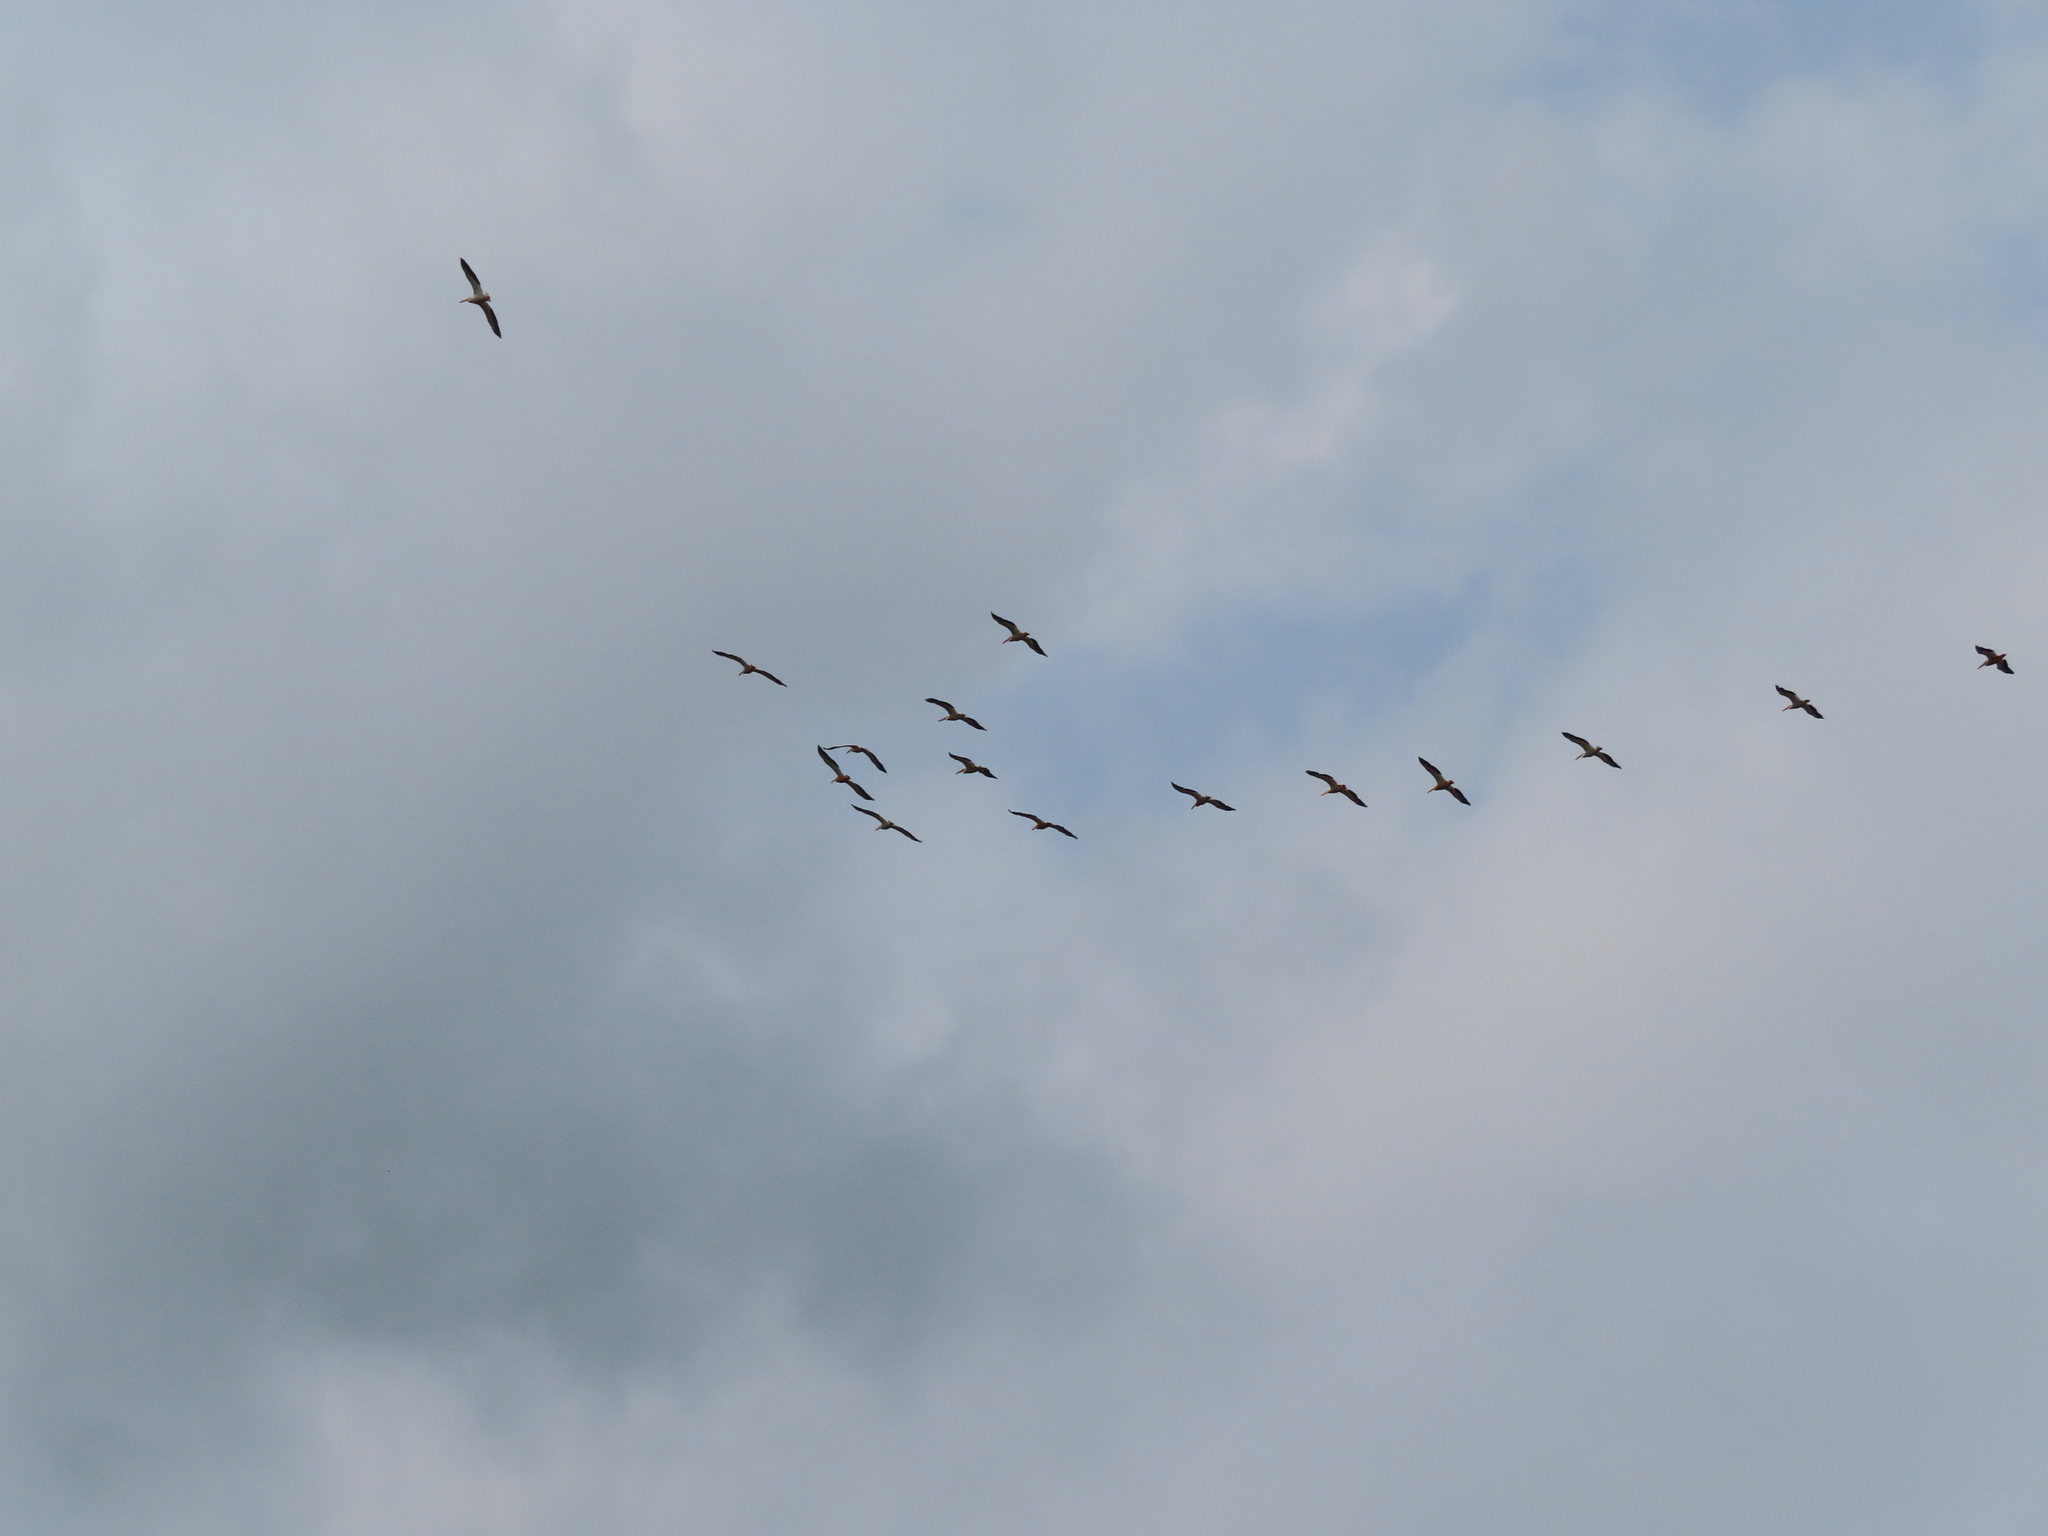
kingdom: Animalia
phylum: Chordata
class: Aves
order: Pelecaniformes
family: Pelecanidae
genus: Pelecanus
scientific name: Pelecanus erythrorhynchos
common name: American white pelican
